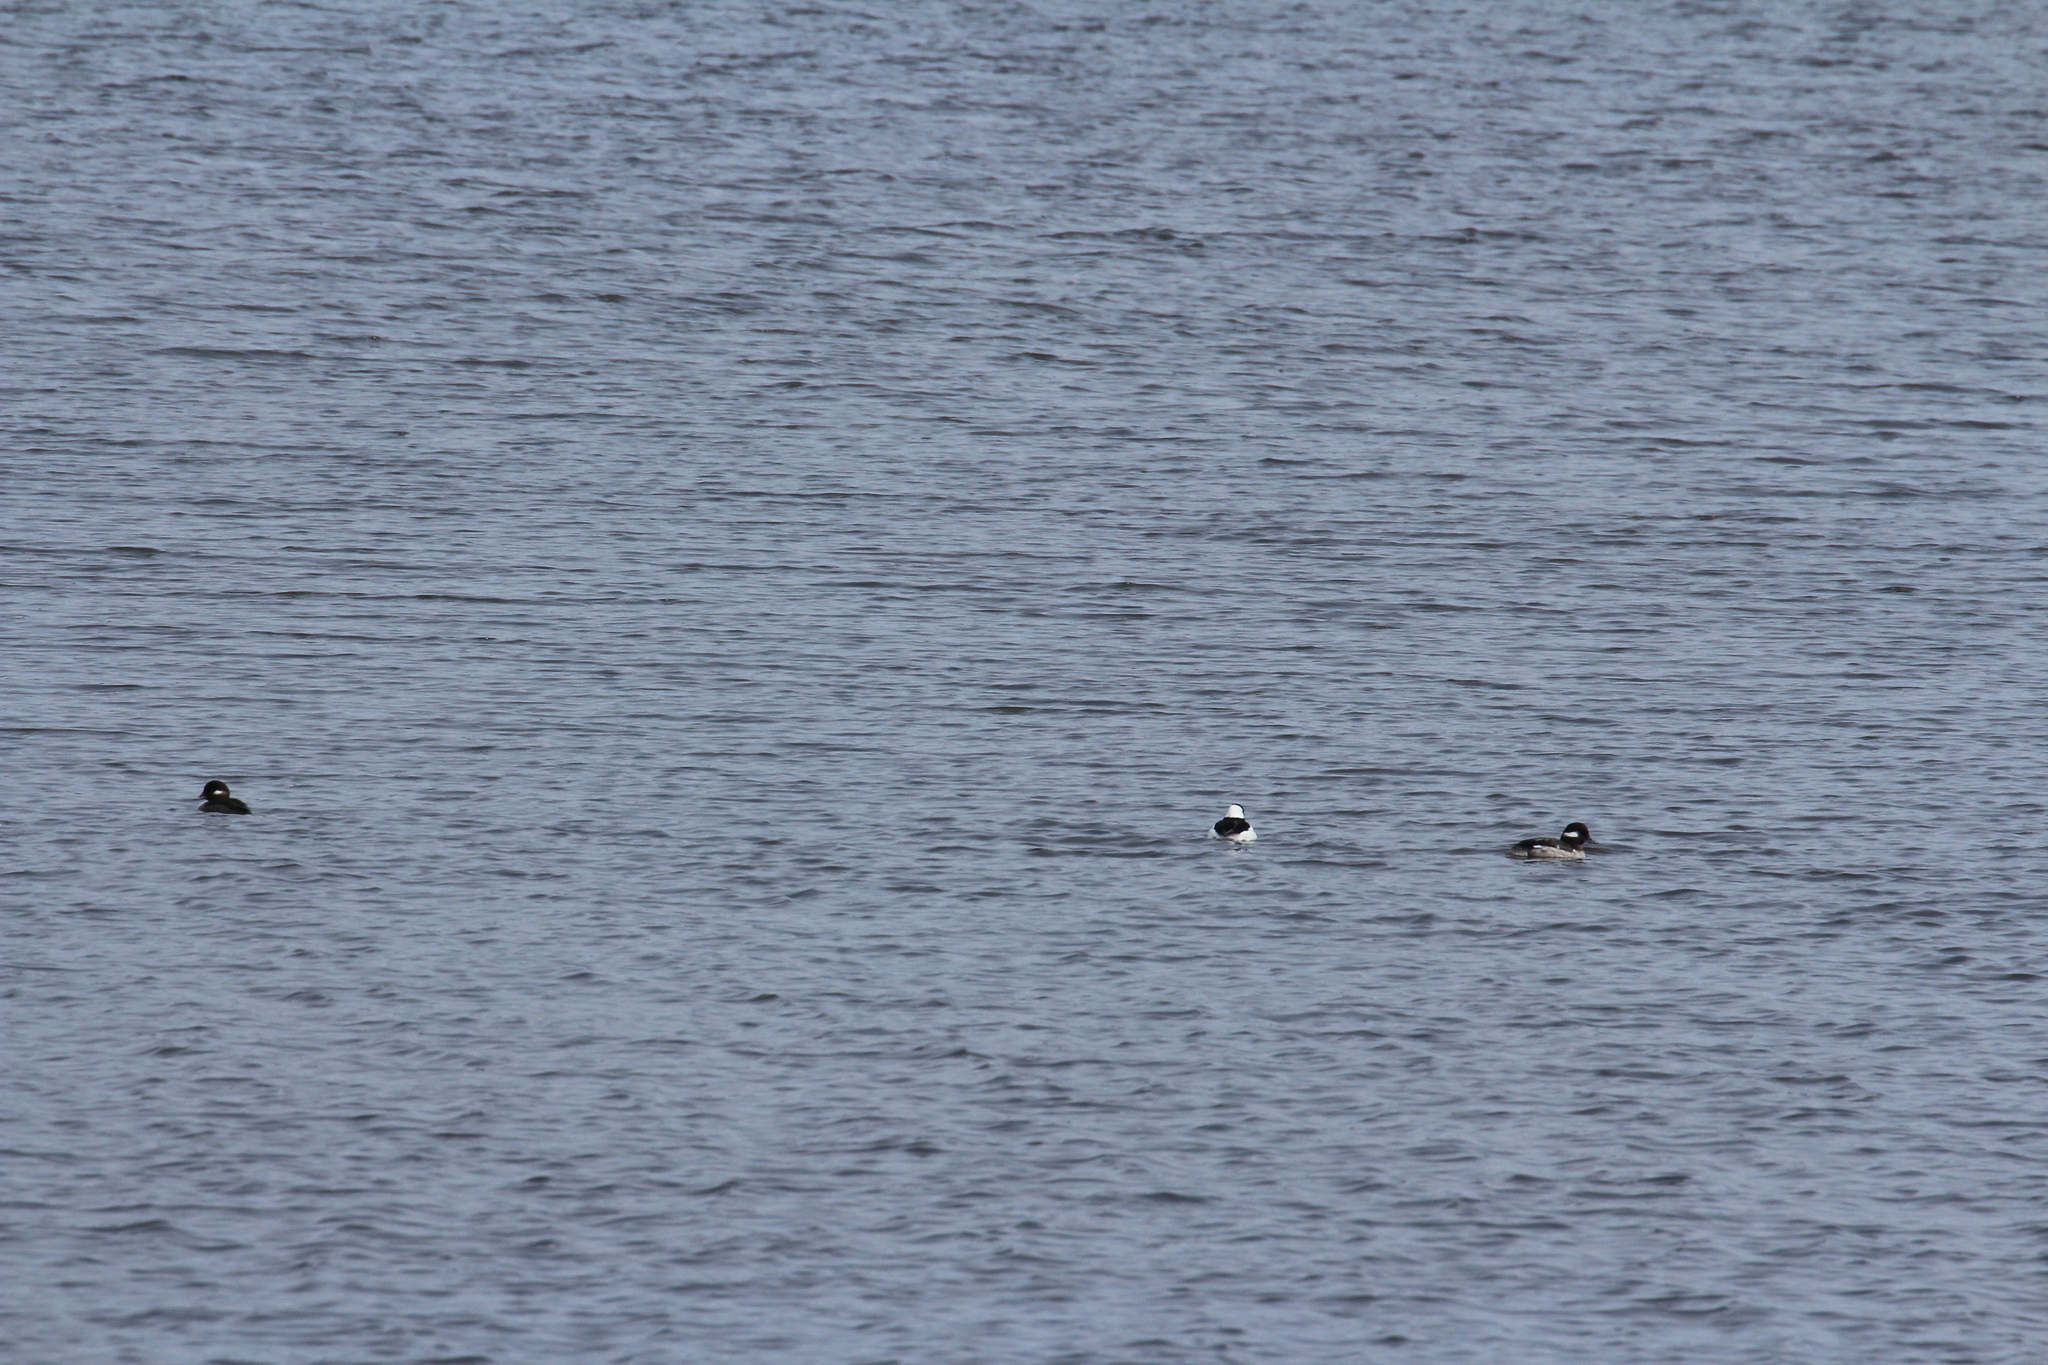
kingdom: Animalia
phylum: Chordata
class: Aves
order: Anseriformes
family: Anatidae
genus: Bucephala
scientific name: Bucephala albeola
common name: Bufflehead
